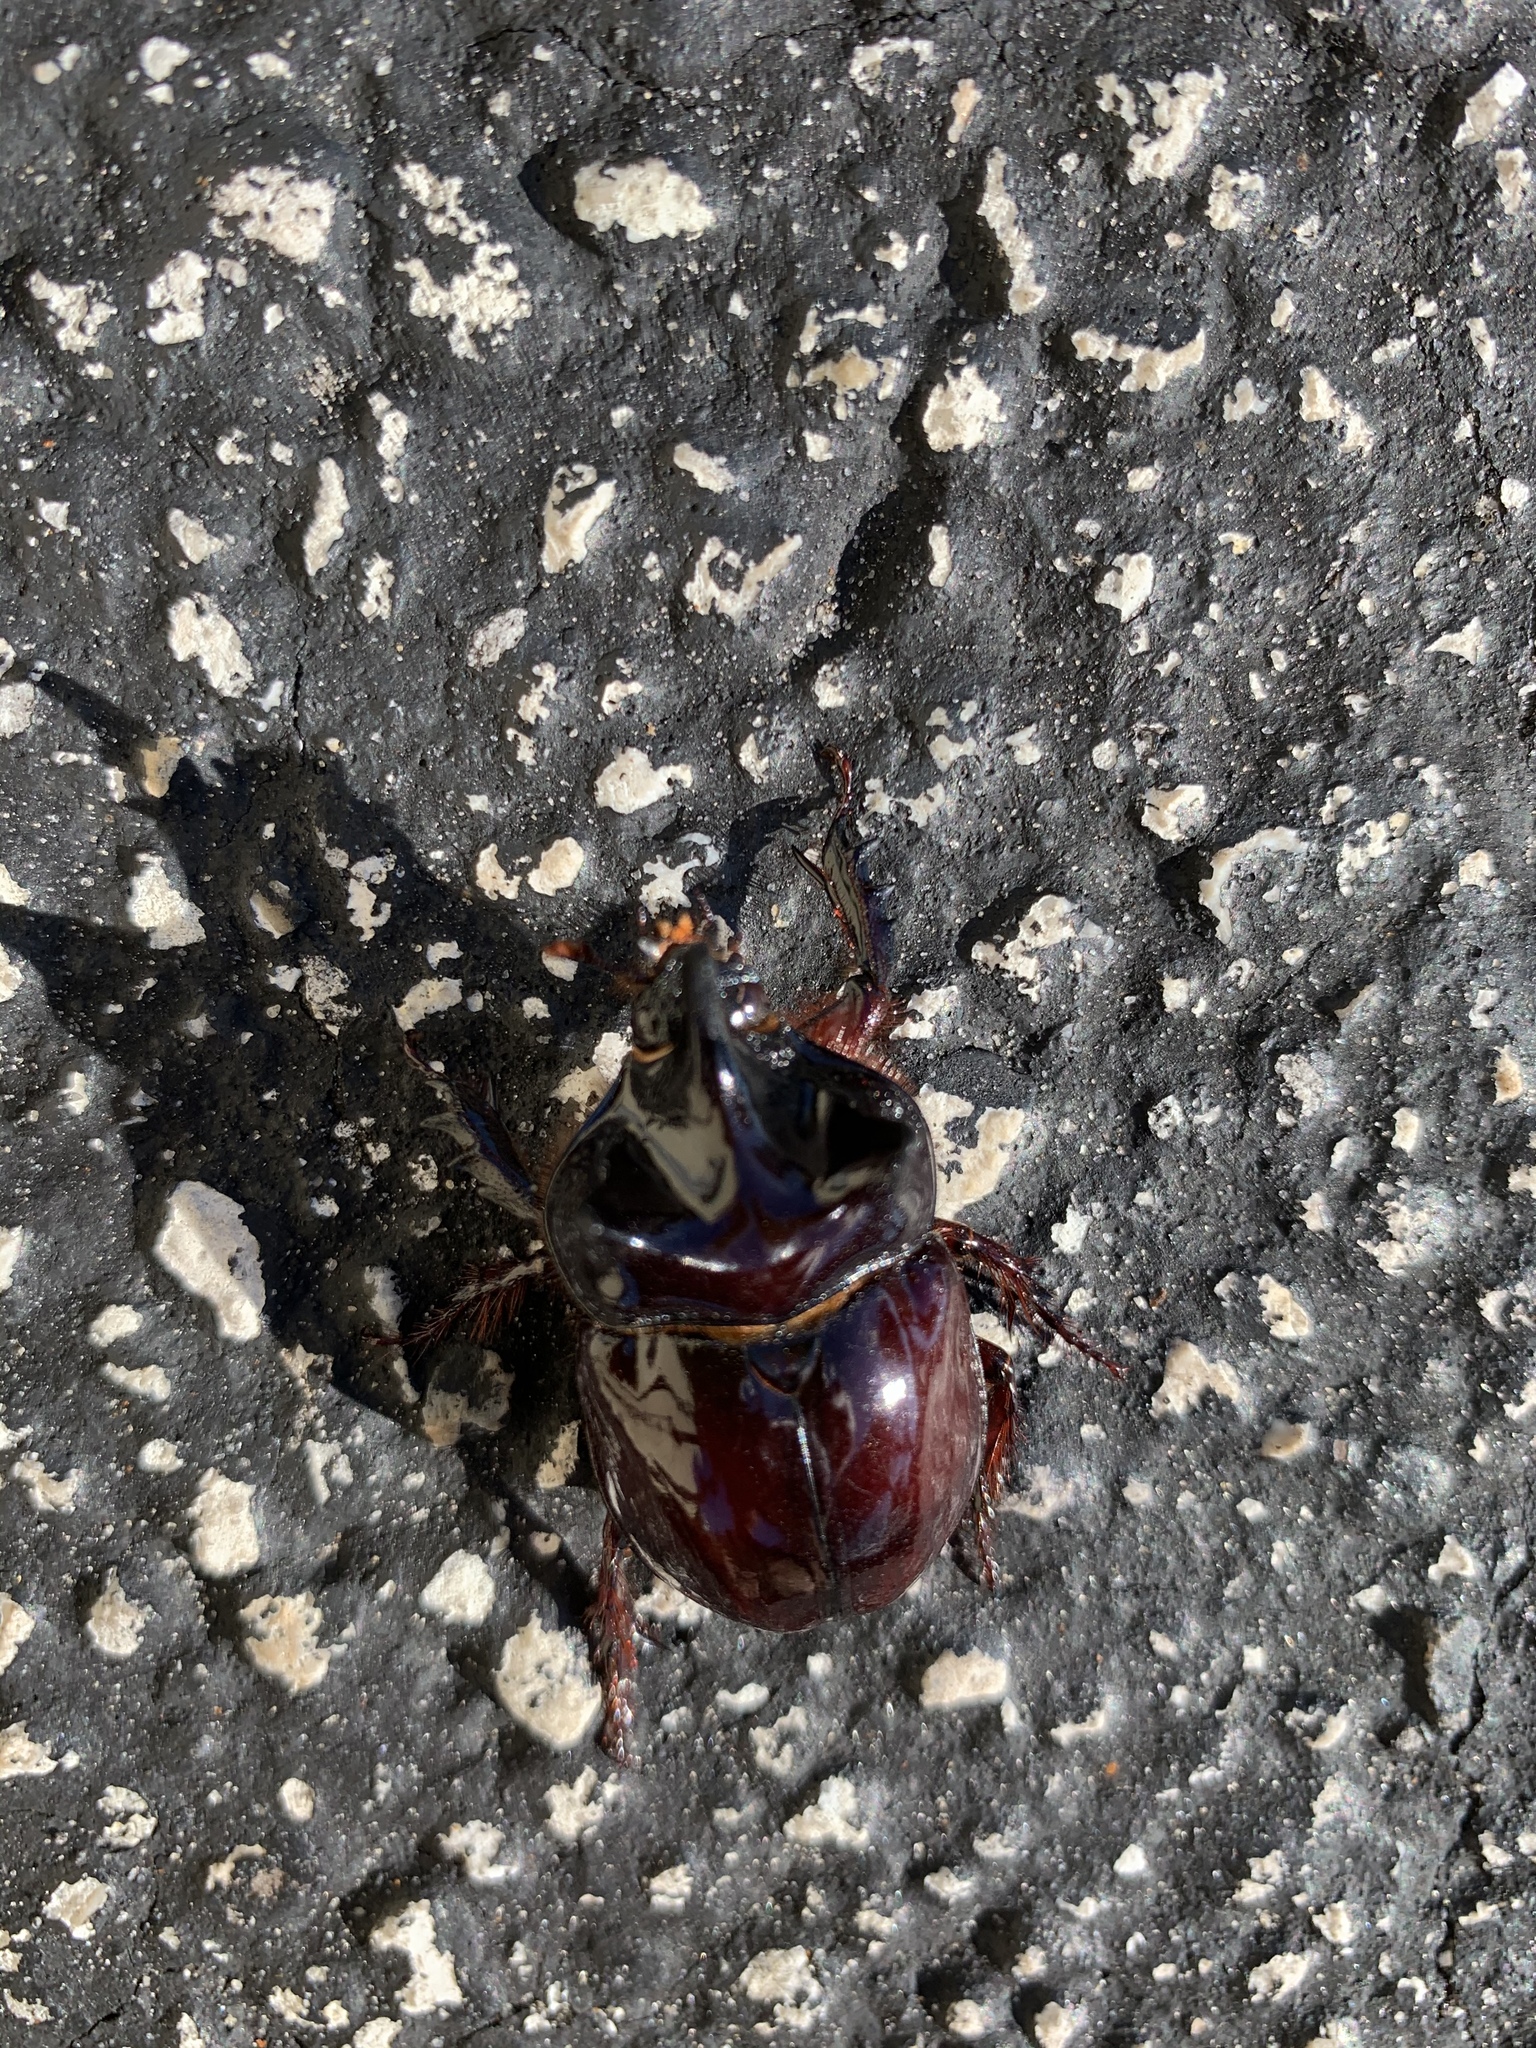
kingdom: Animalia
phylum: Arthropoda
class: Insecta
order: Coleoptera
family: Scarabaeidae
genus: Strategus
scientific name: Strategus antaeus
